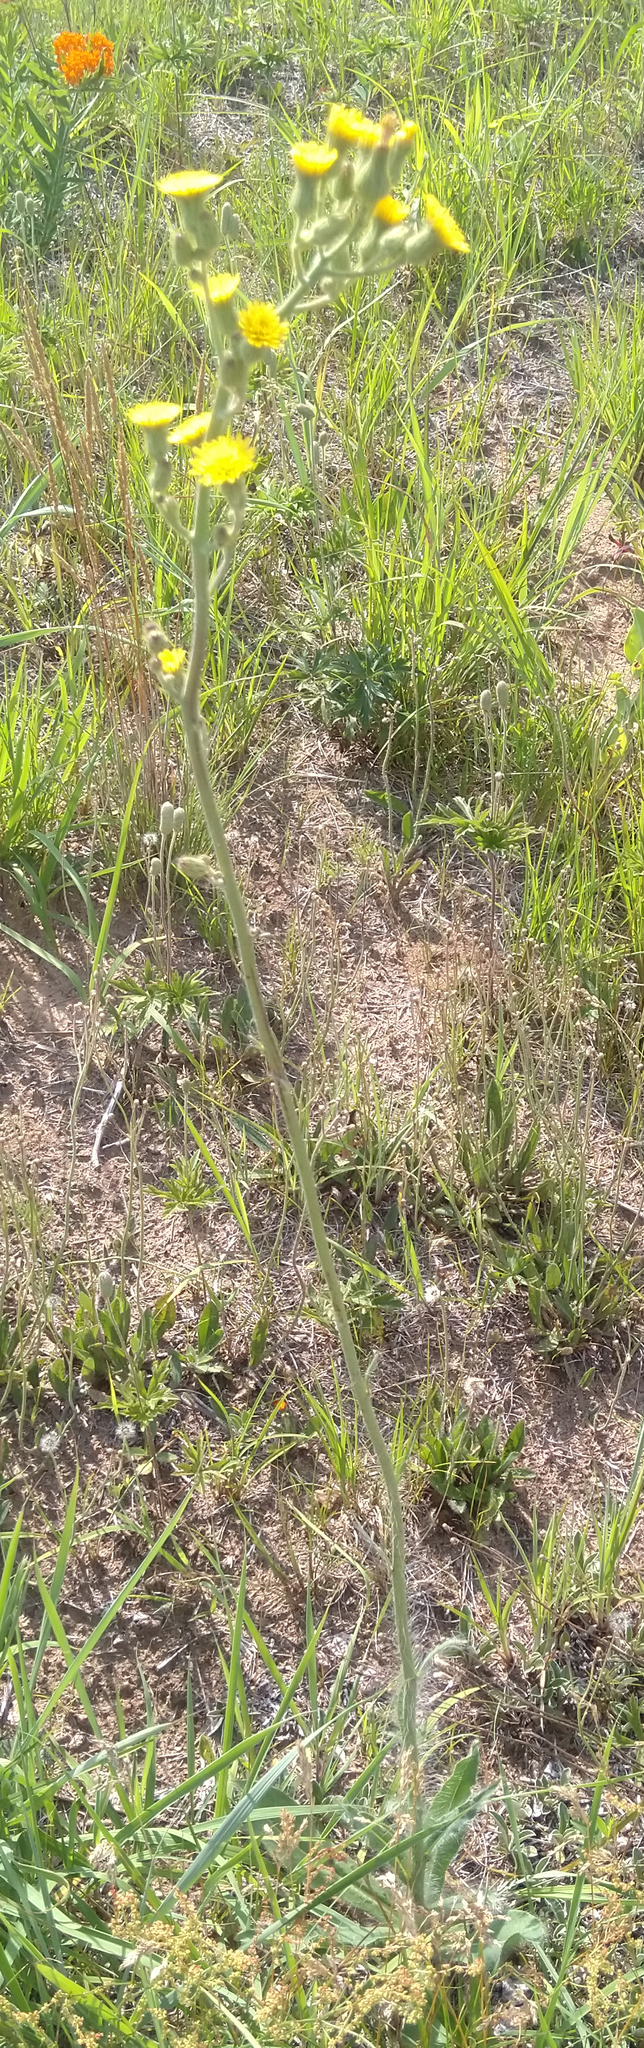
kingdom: Plantae
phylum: Tracheophyta
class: Magnoliopsida
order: Asterales
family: Asteraceae
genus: Hieracium
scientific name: Hieracium longipilum
